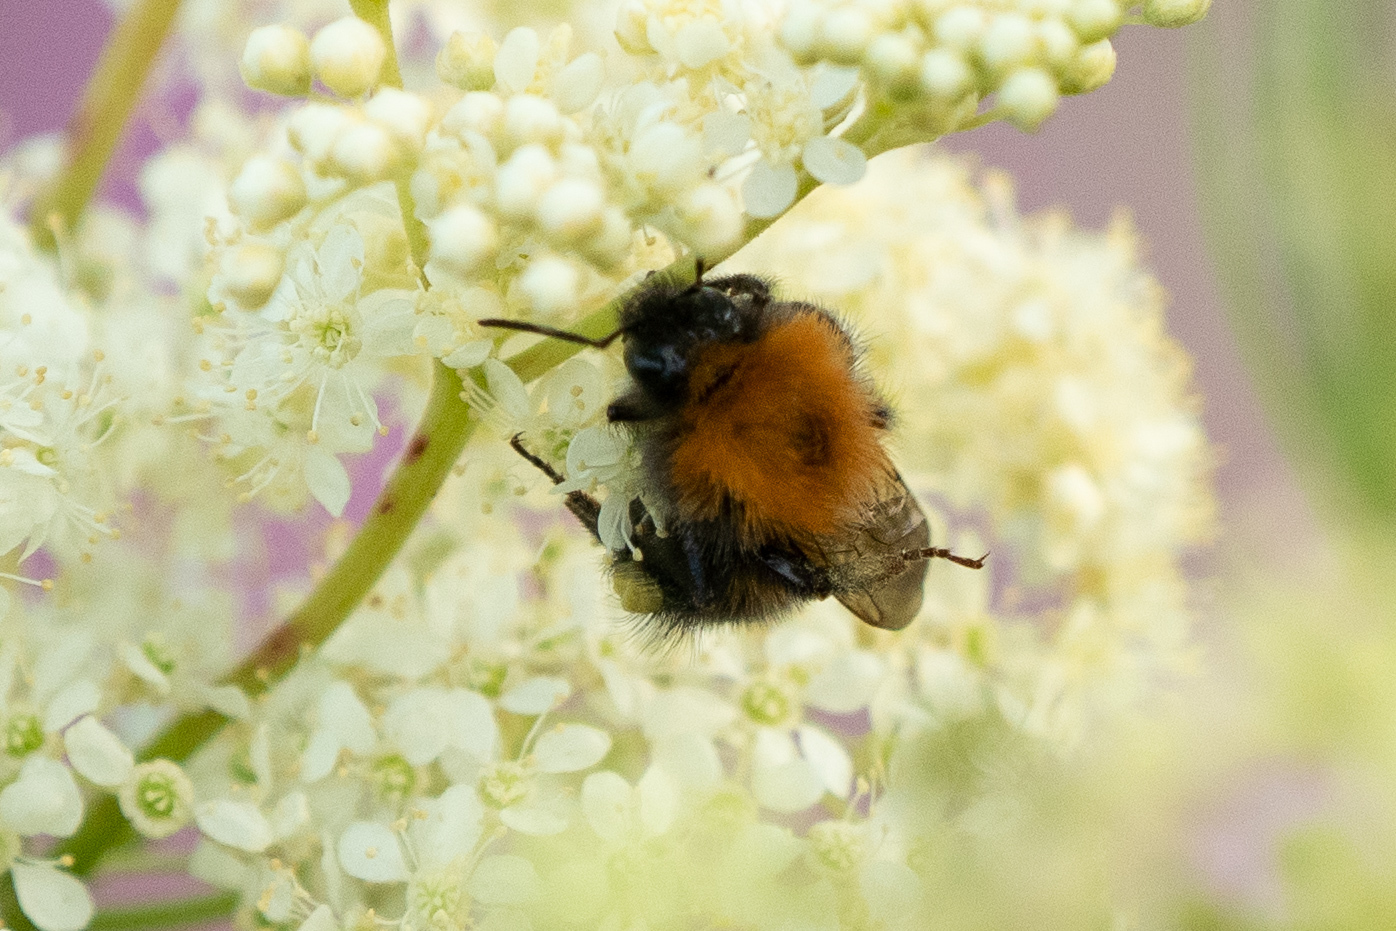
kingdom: Animalia
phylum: Arthropoda
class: Insecta
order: Hymenoptera
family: Apidae
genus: Bombus
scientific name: Bombus hypnorum
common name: New garden bumblebee
